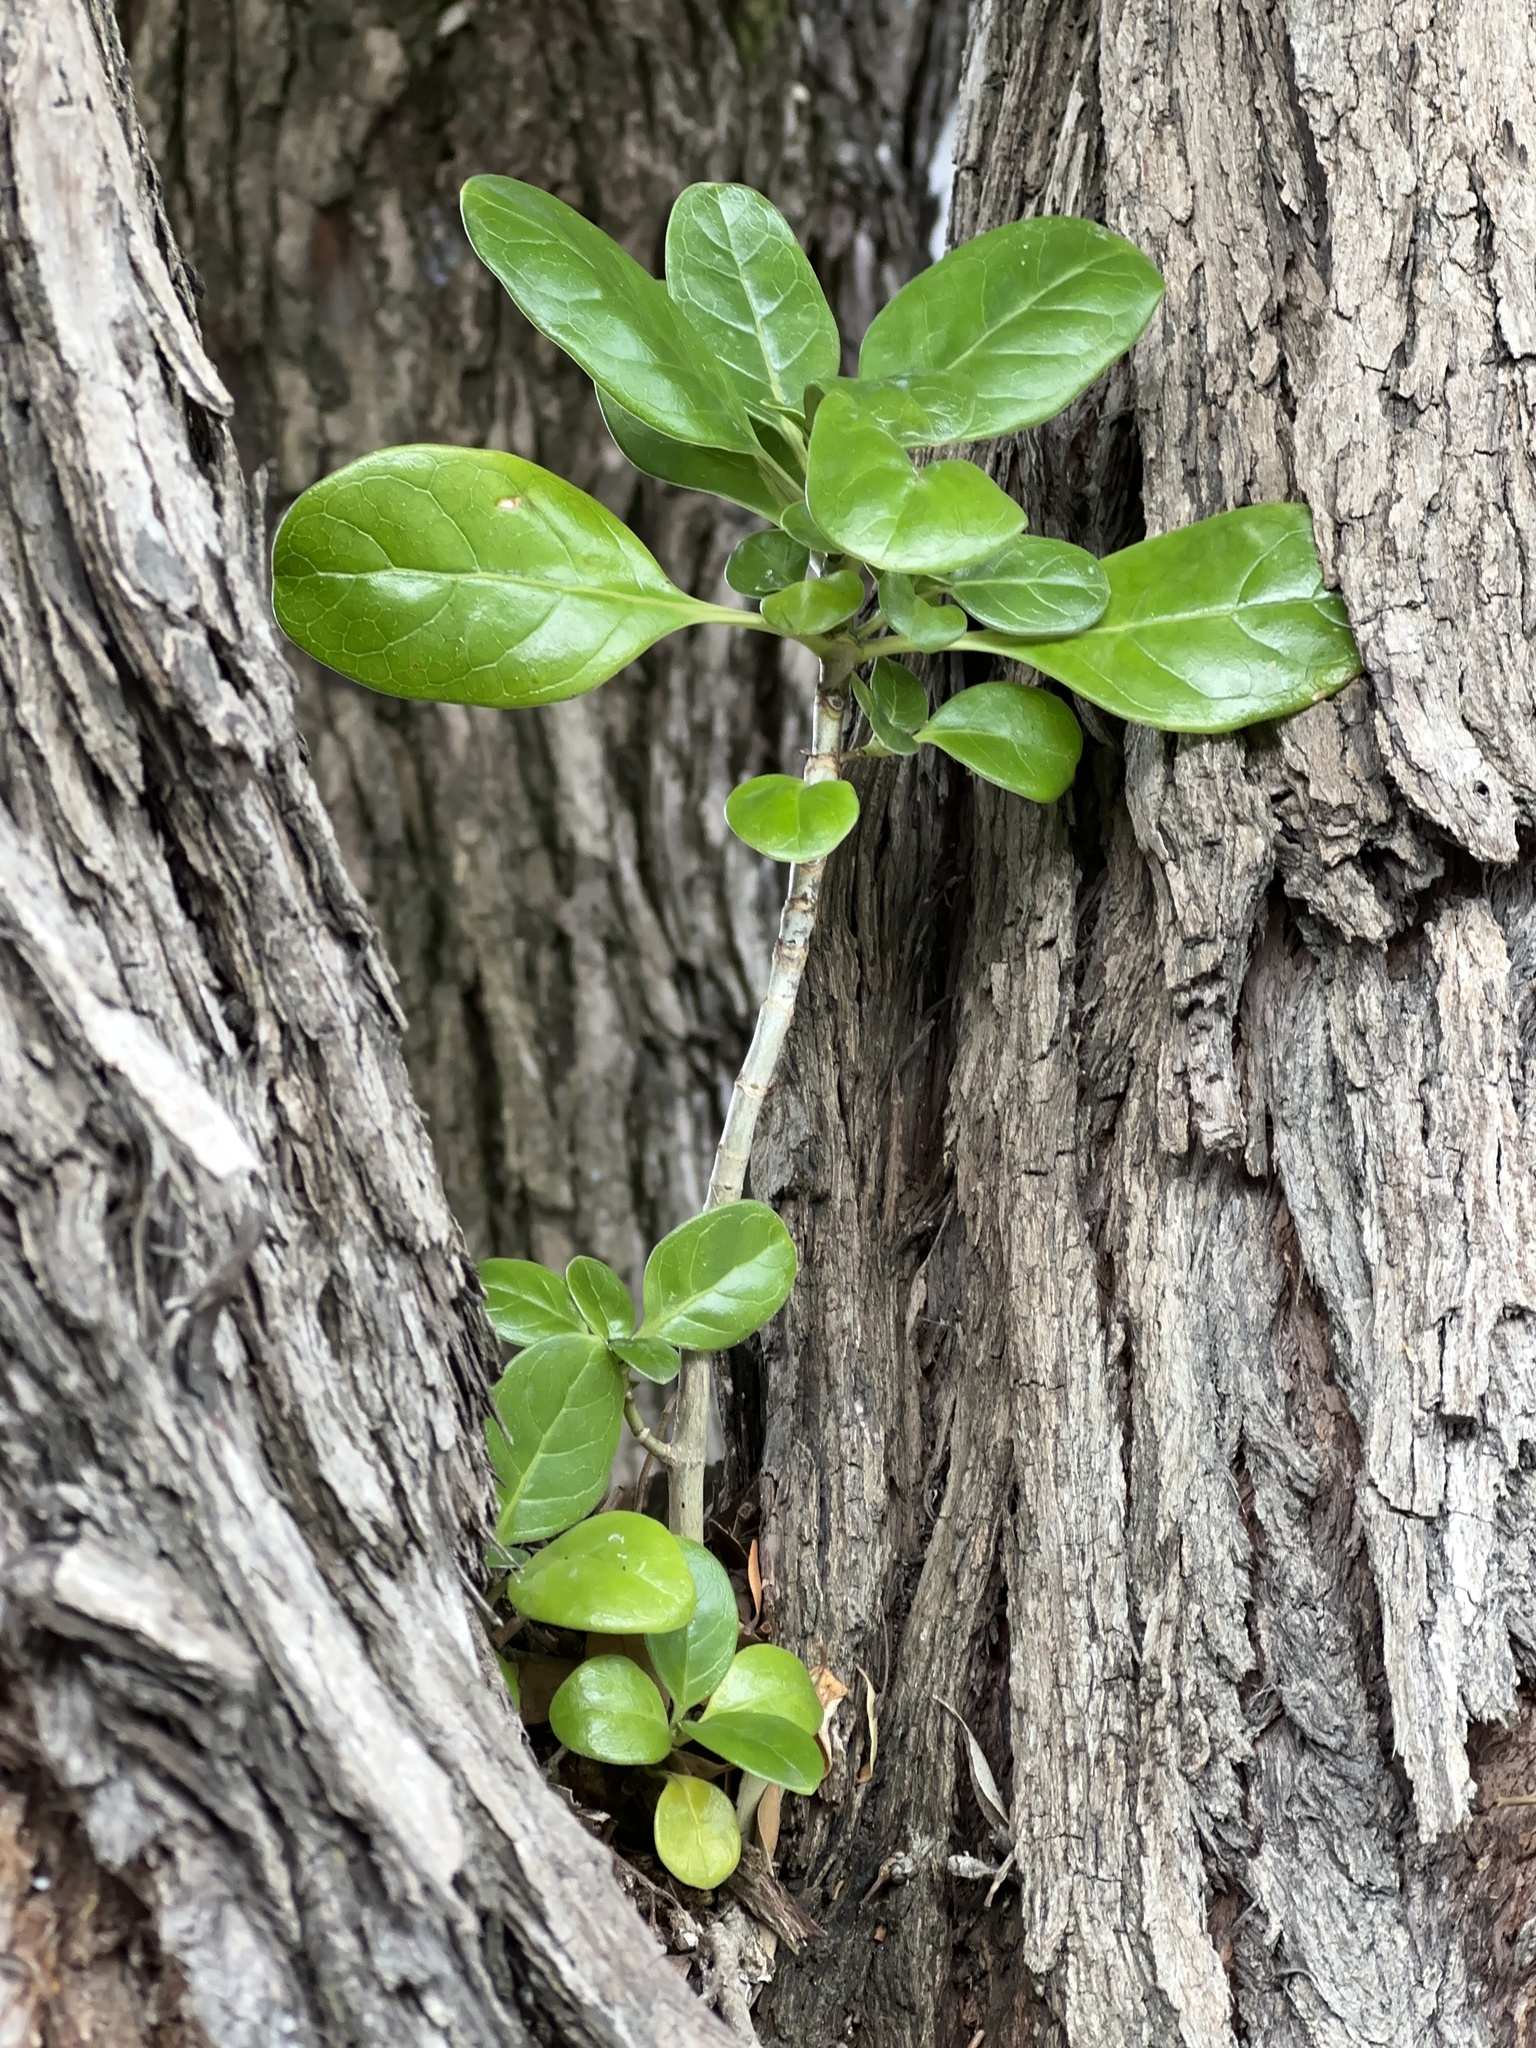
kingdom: Plantae
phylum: Tracheophyta
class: Magnoliopsida
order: Gentianales
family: Rubiaceae
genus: Coprosma
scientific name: Coprosma repens
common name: Tree bedstraw
